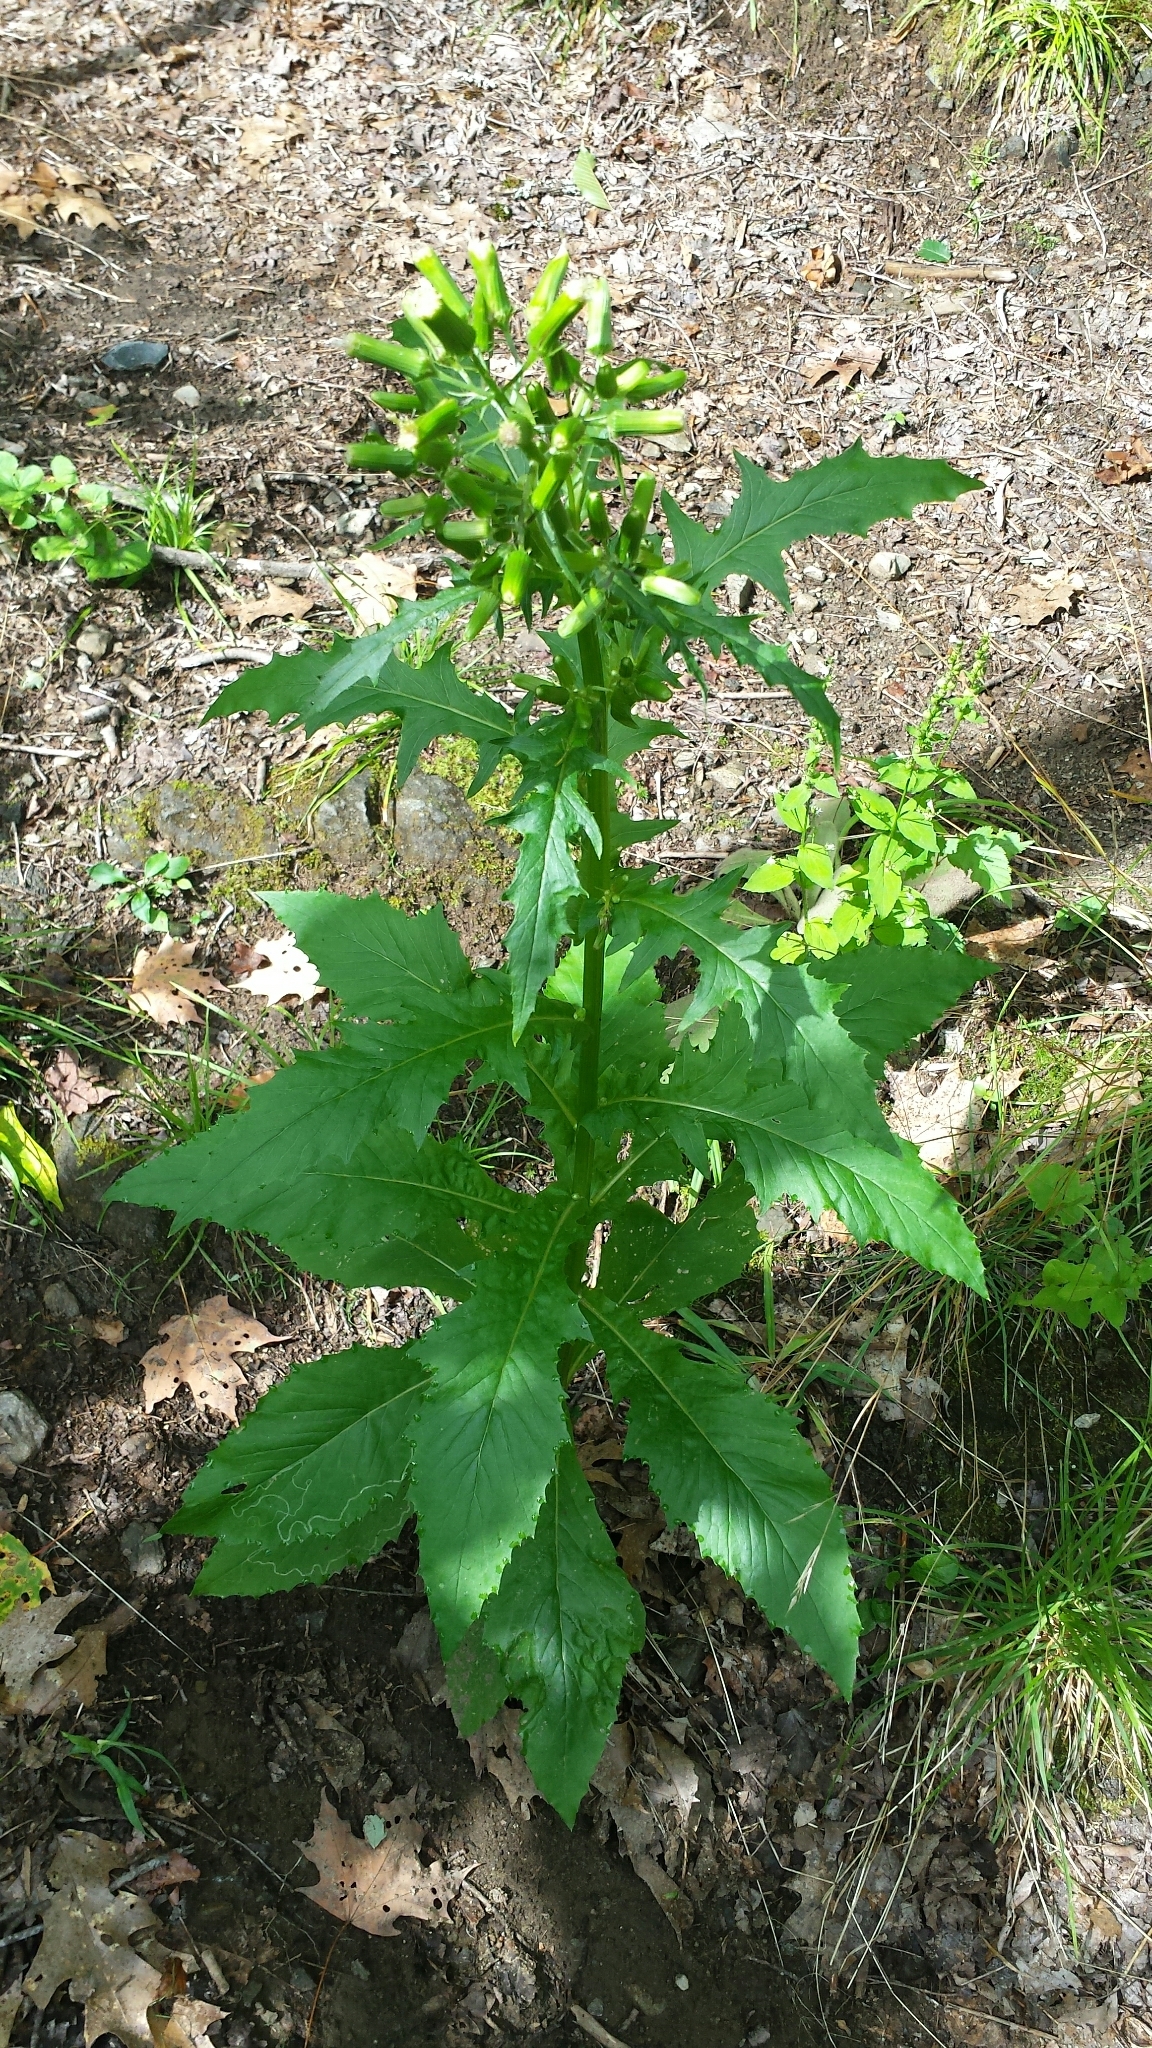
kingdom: Plantae
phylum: Tracheophyta
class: Magnoliopsida
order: Asterales
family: Asteraceae
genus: Erechtites
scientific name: Erechtites hieraciifolius
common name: American burnweed
